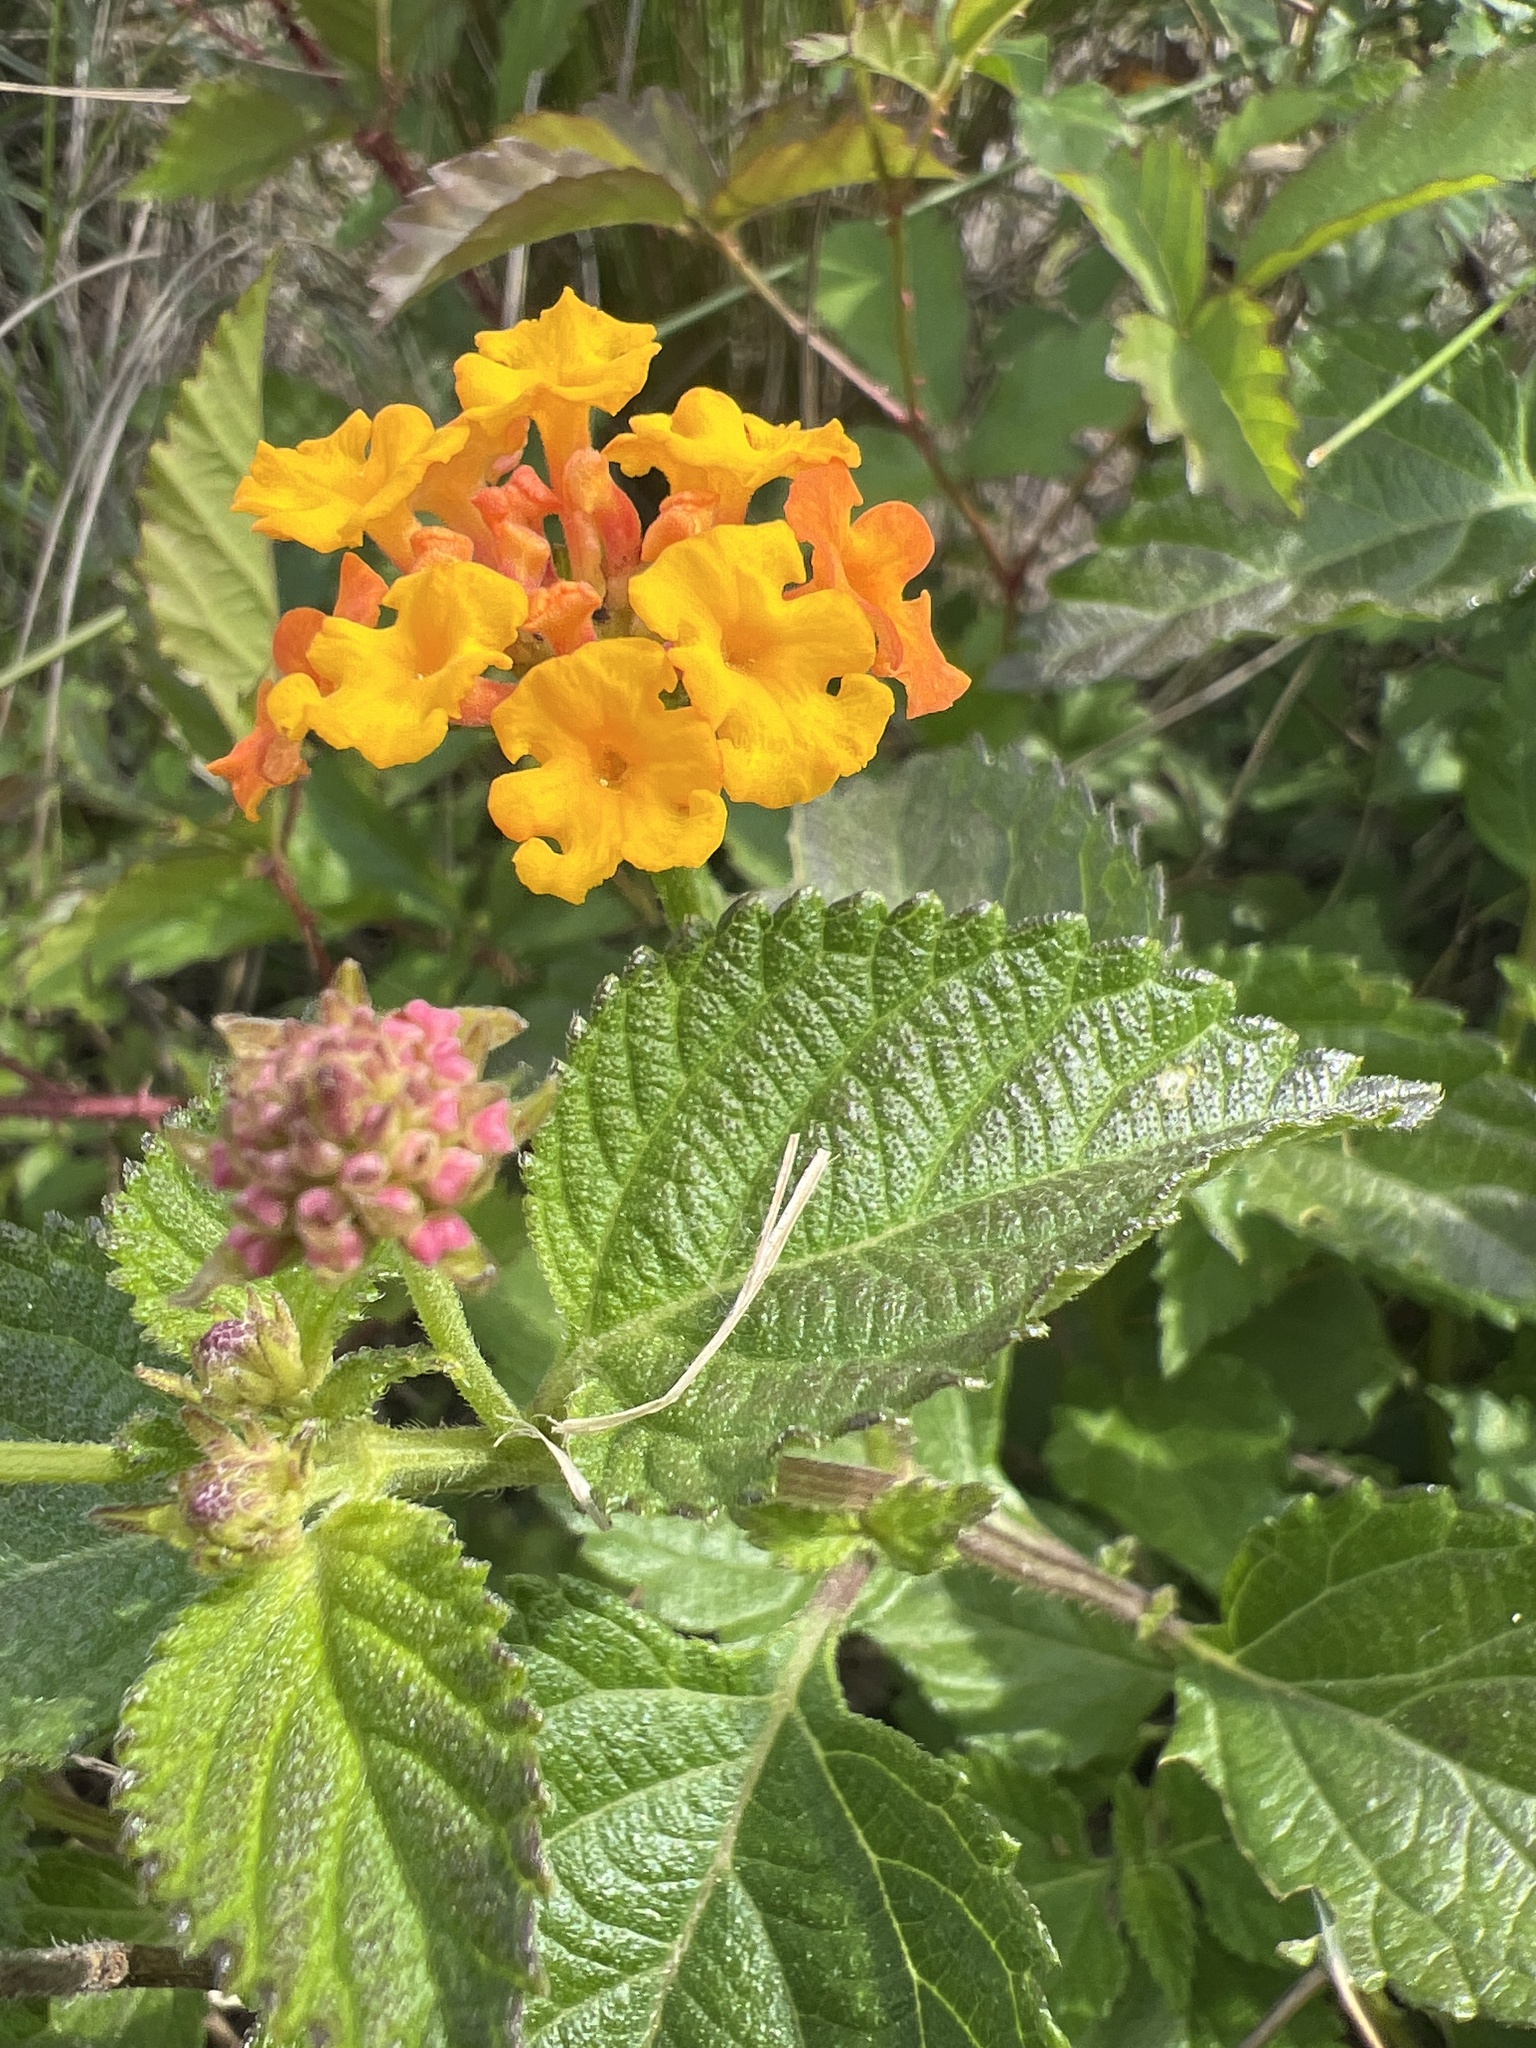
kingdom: Plantae
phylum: Tracheophyta
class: Magnoliopsida
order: Lamiales
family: Verbenaceae
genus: Lantana
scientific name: Lantana camara
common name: Lantana
